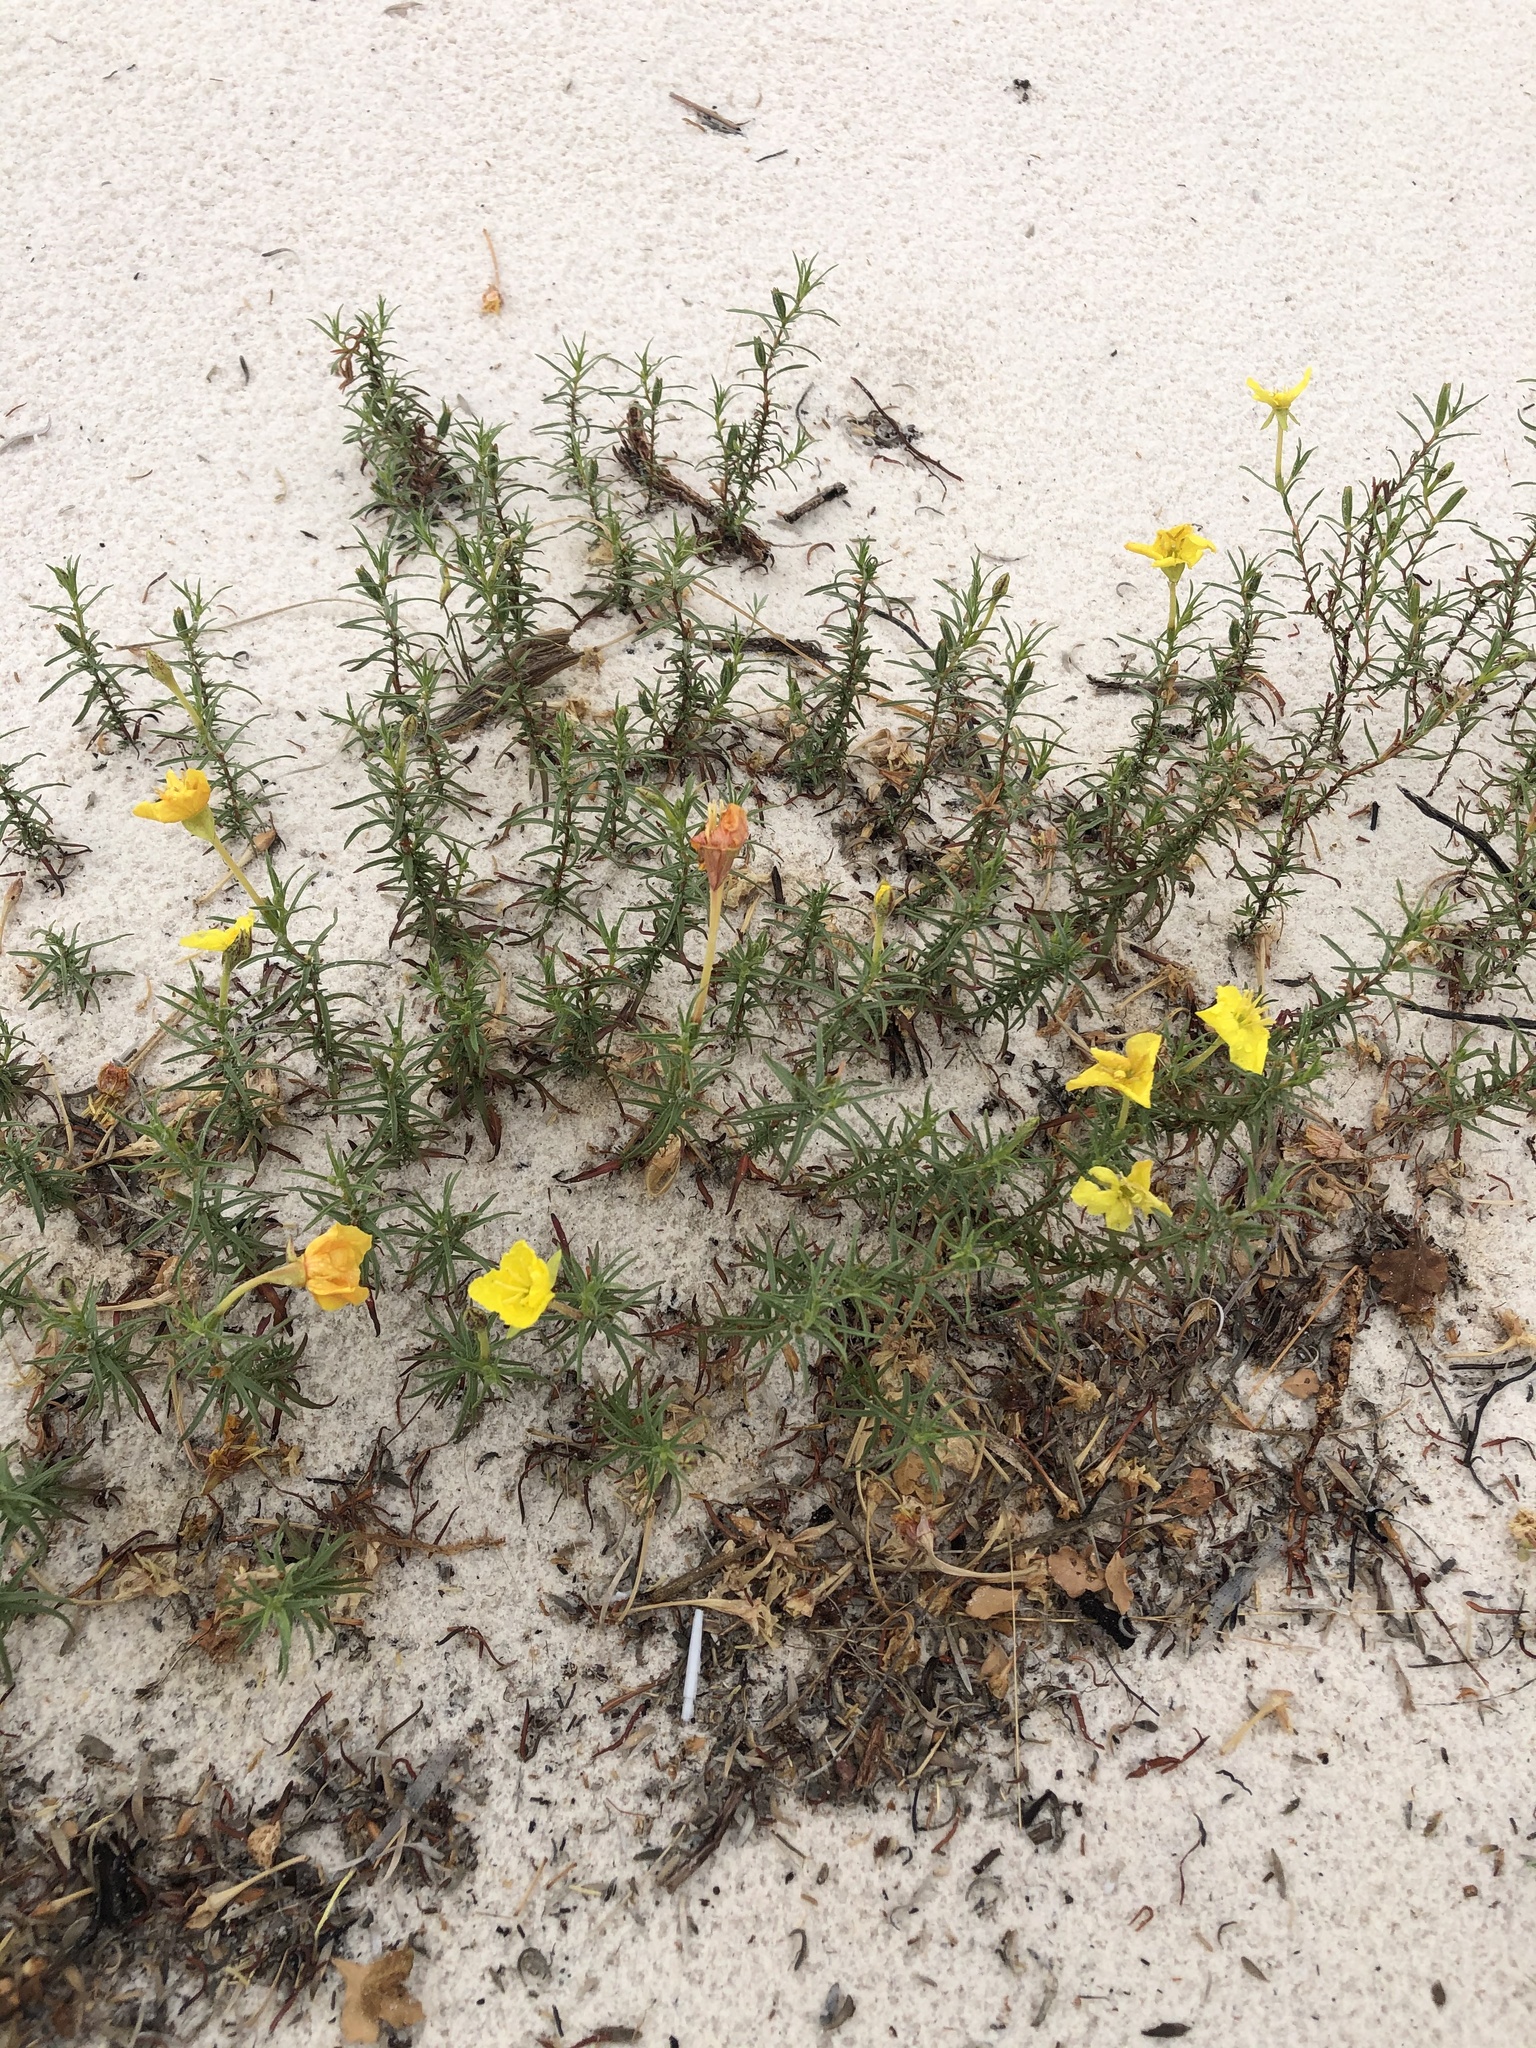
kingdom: Plantae
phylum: Tracheophyta
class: Magnoliopsida
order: Myrtales
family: Onagraceae
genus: Oenothera
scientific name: Oenothera hartwegii
